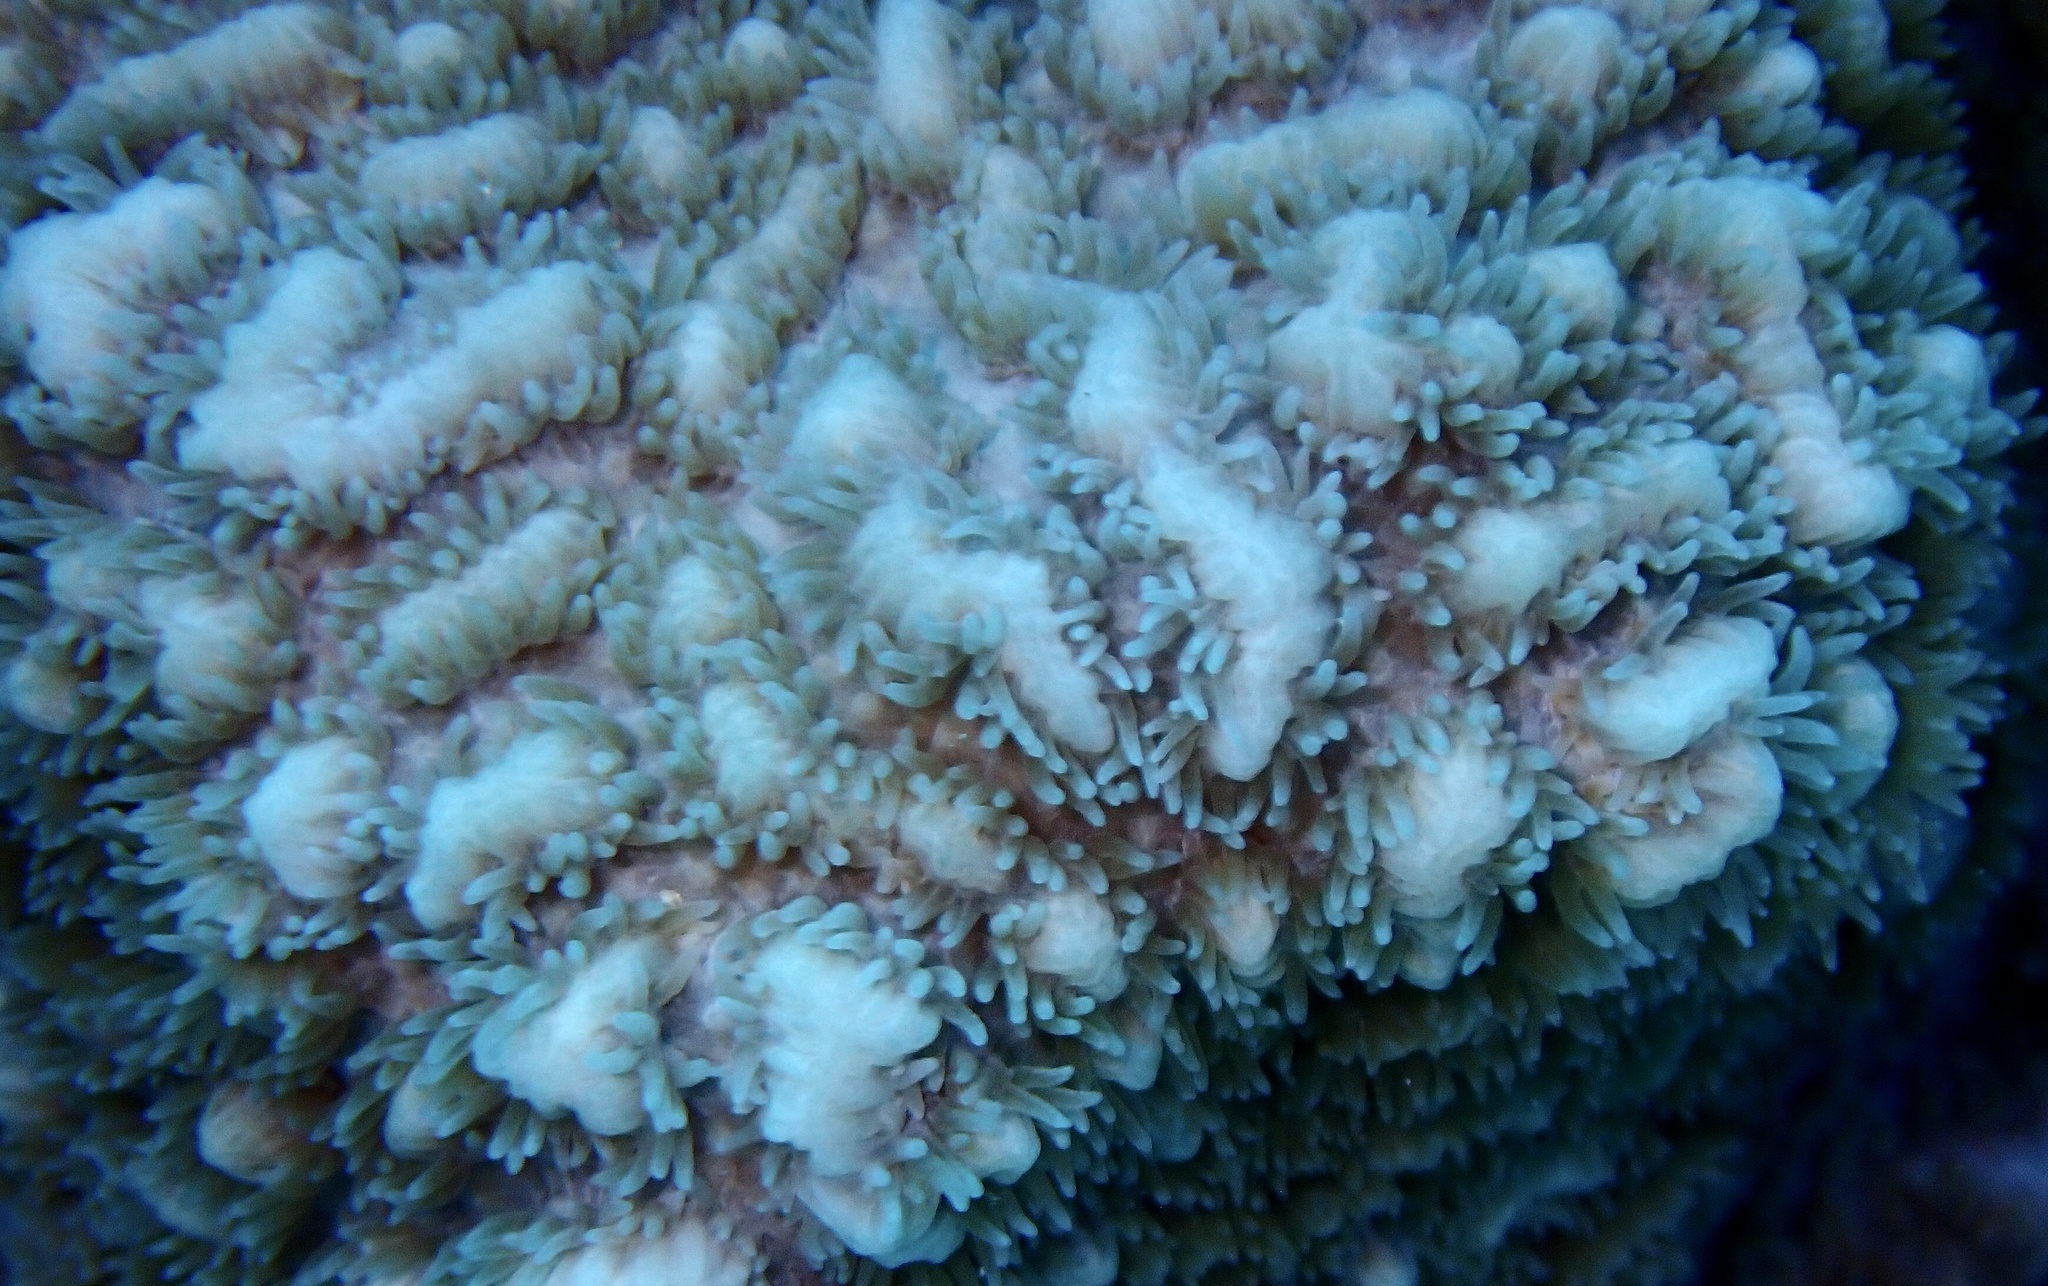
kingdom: Animalia
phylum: Cnidaria
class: Anthozoa
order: Scleractinia
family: Merulinidae
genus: Hydnophora
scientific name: Hydnophora exesa
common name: Spine coral
